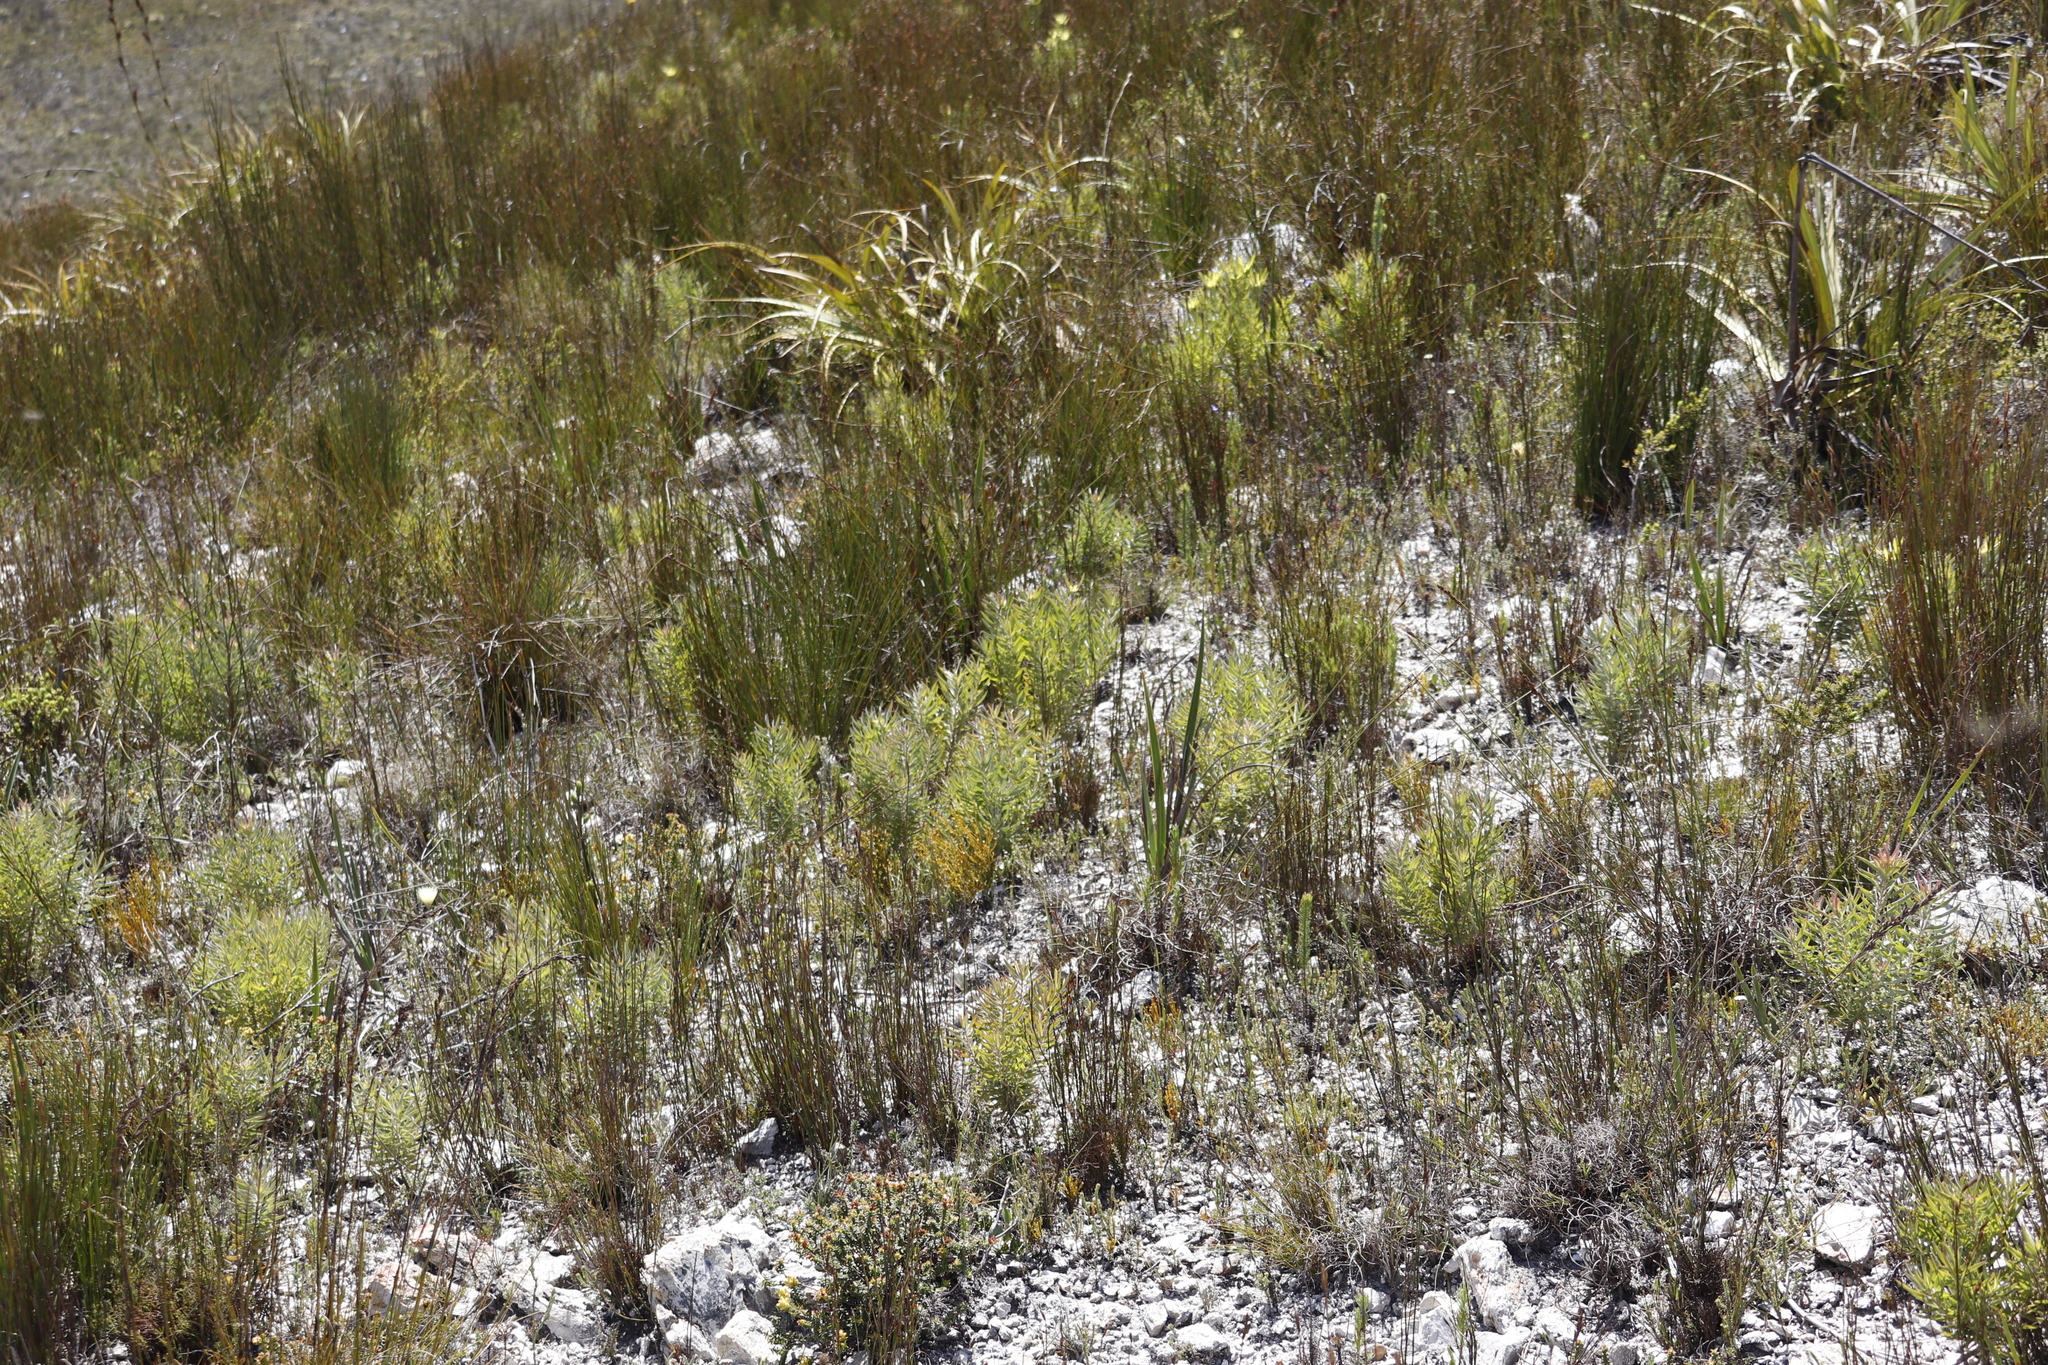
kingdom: Plantae
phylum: Tracheophyta
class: Magnoliopsida
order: Proteales
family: Proteaceae
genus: Leucadendron
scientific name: Leucadendron xanthoconus
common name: Sickle-leaf conebush
